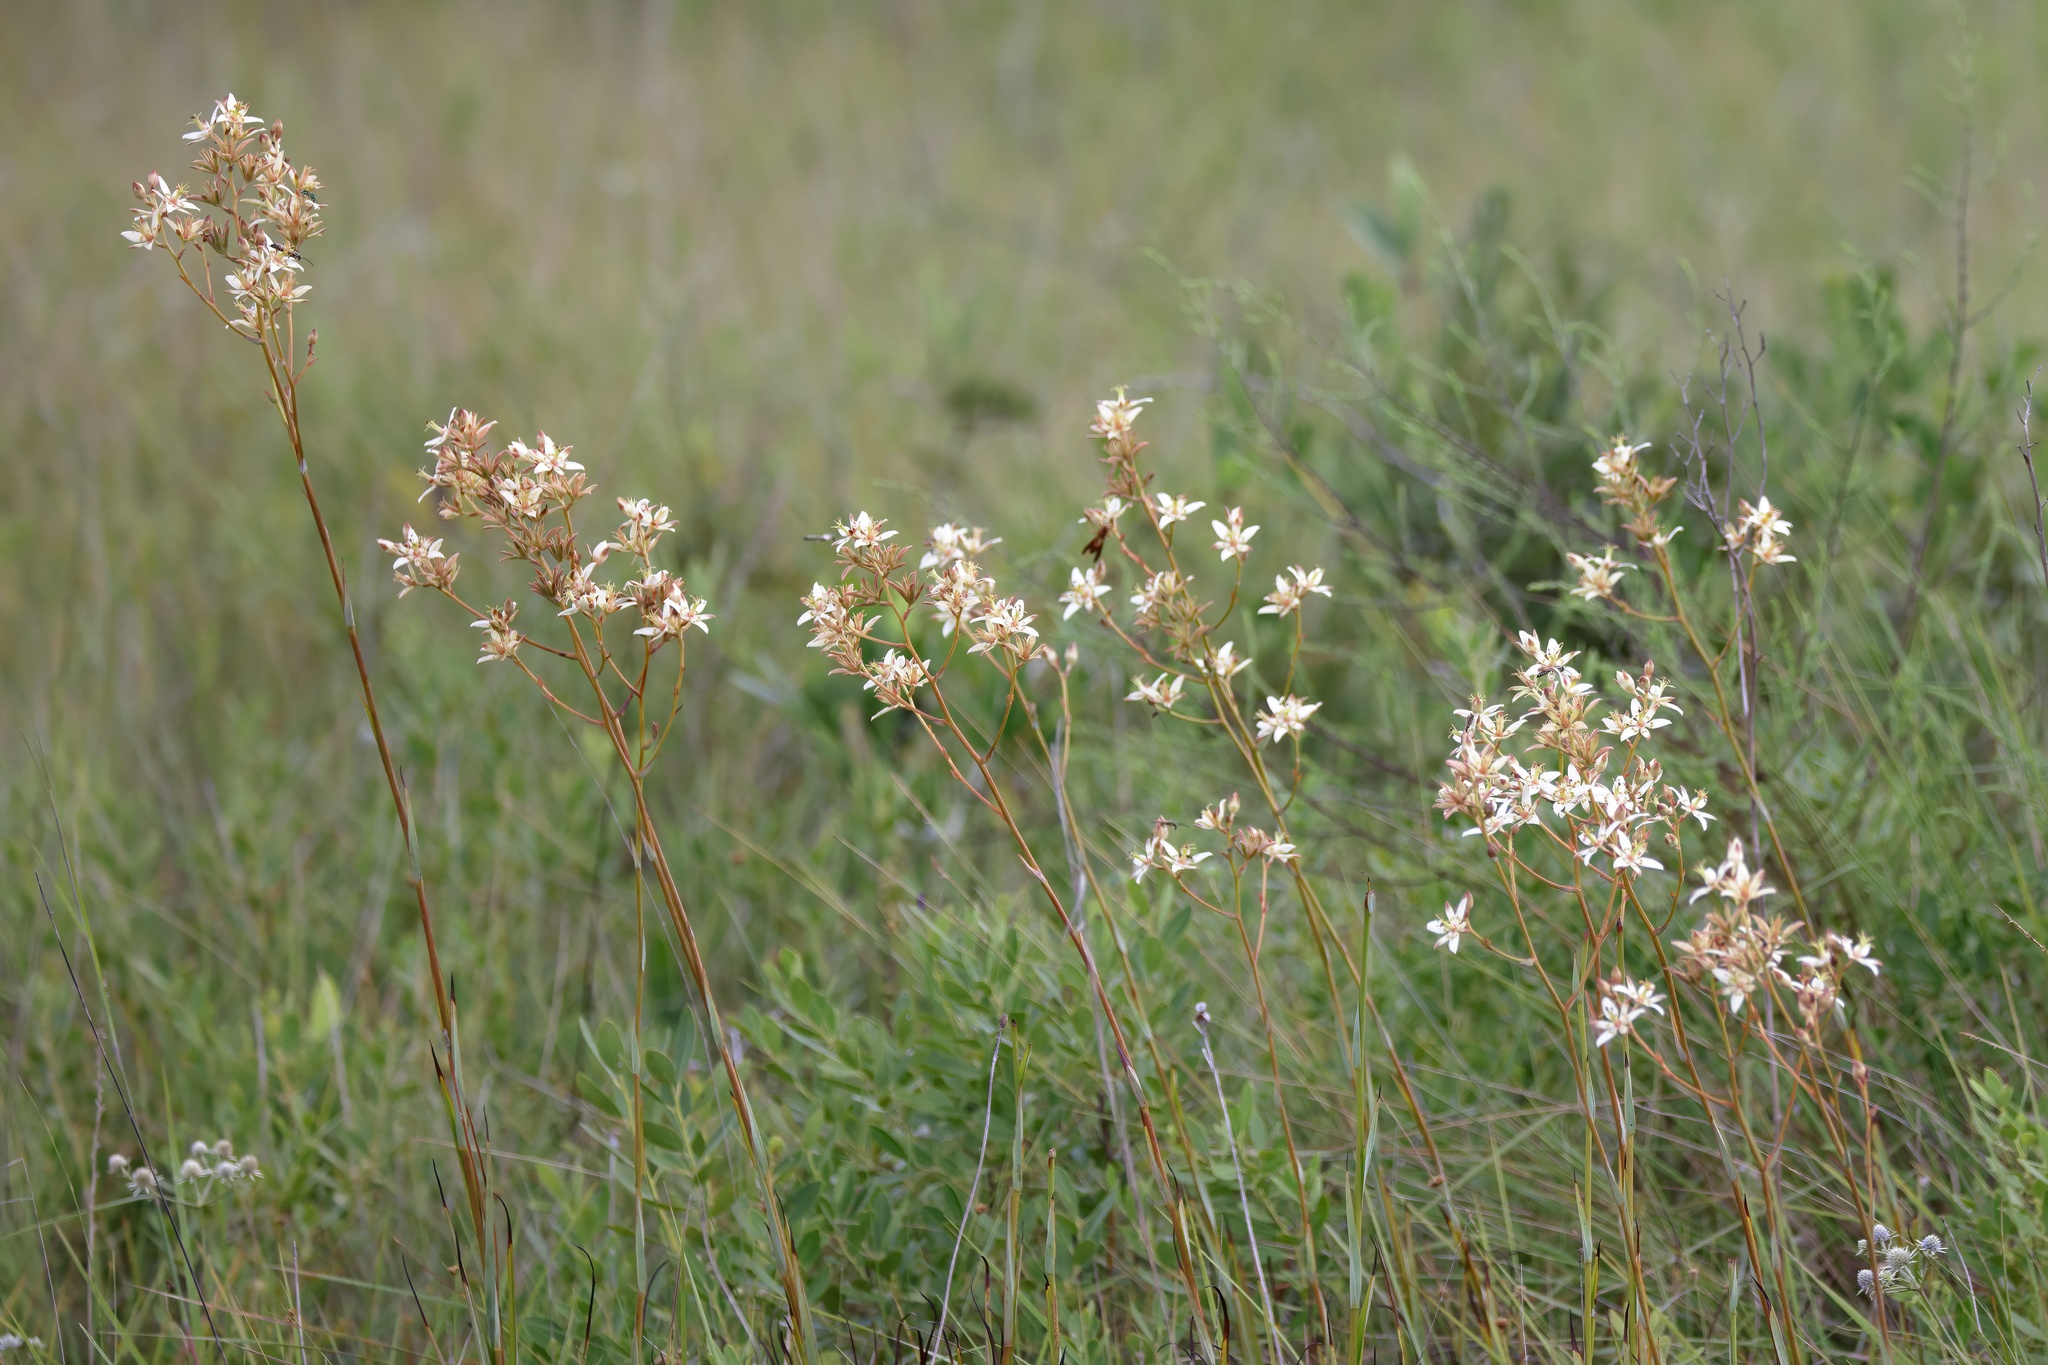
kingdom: Plantae
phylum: Tracheophyta
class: Liliopsida
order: Liliales
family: Melanthiaceae
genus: Zigadenus
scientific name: Zigadenus glaberrimus
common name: Sandbog death camas
